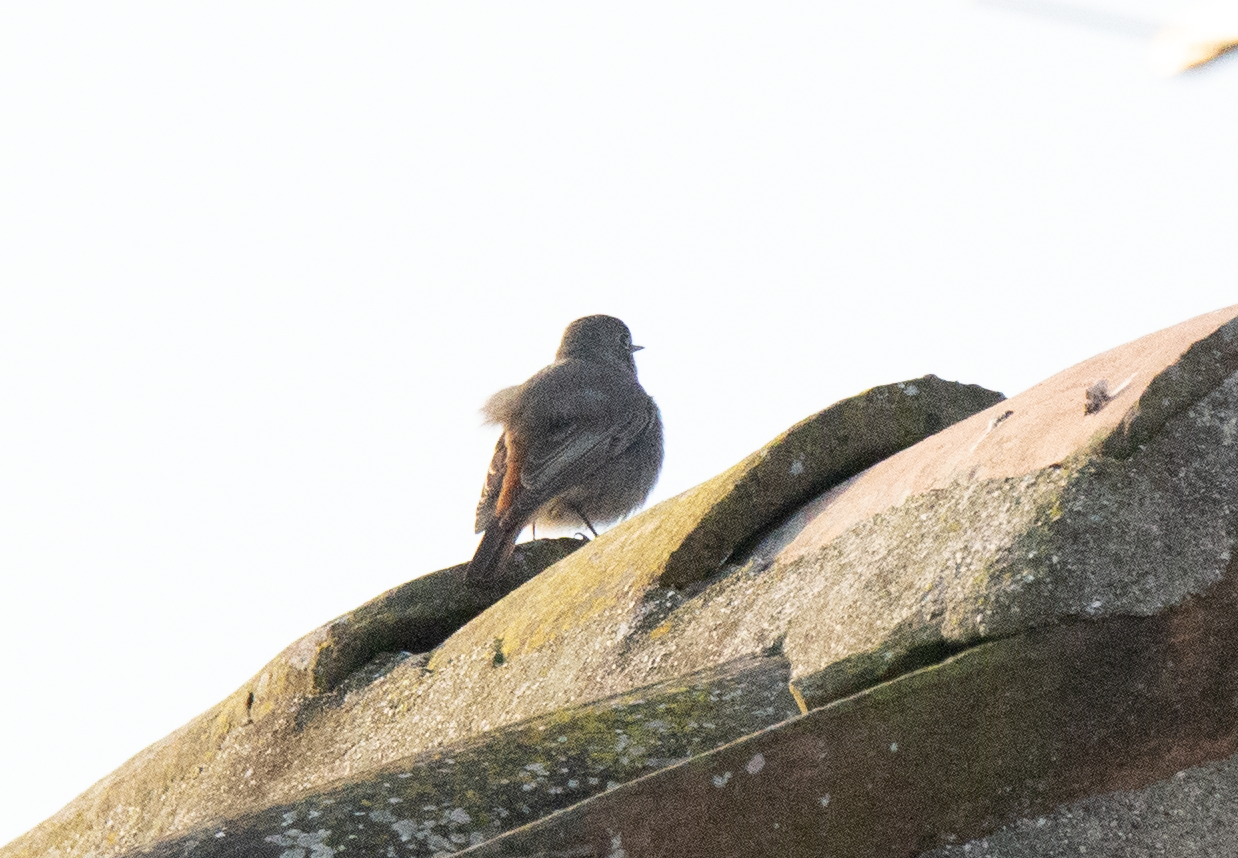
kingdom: Animalia
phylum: Chordata
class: Aves
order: Passeriformes
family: Muscicapidae
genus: Phoenicurus
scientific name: Phoenicurus ochruros
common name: Black redstart
